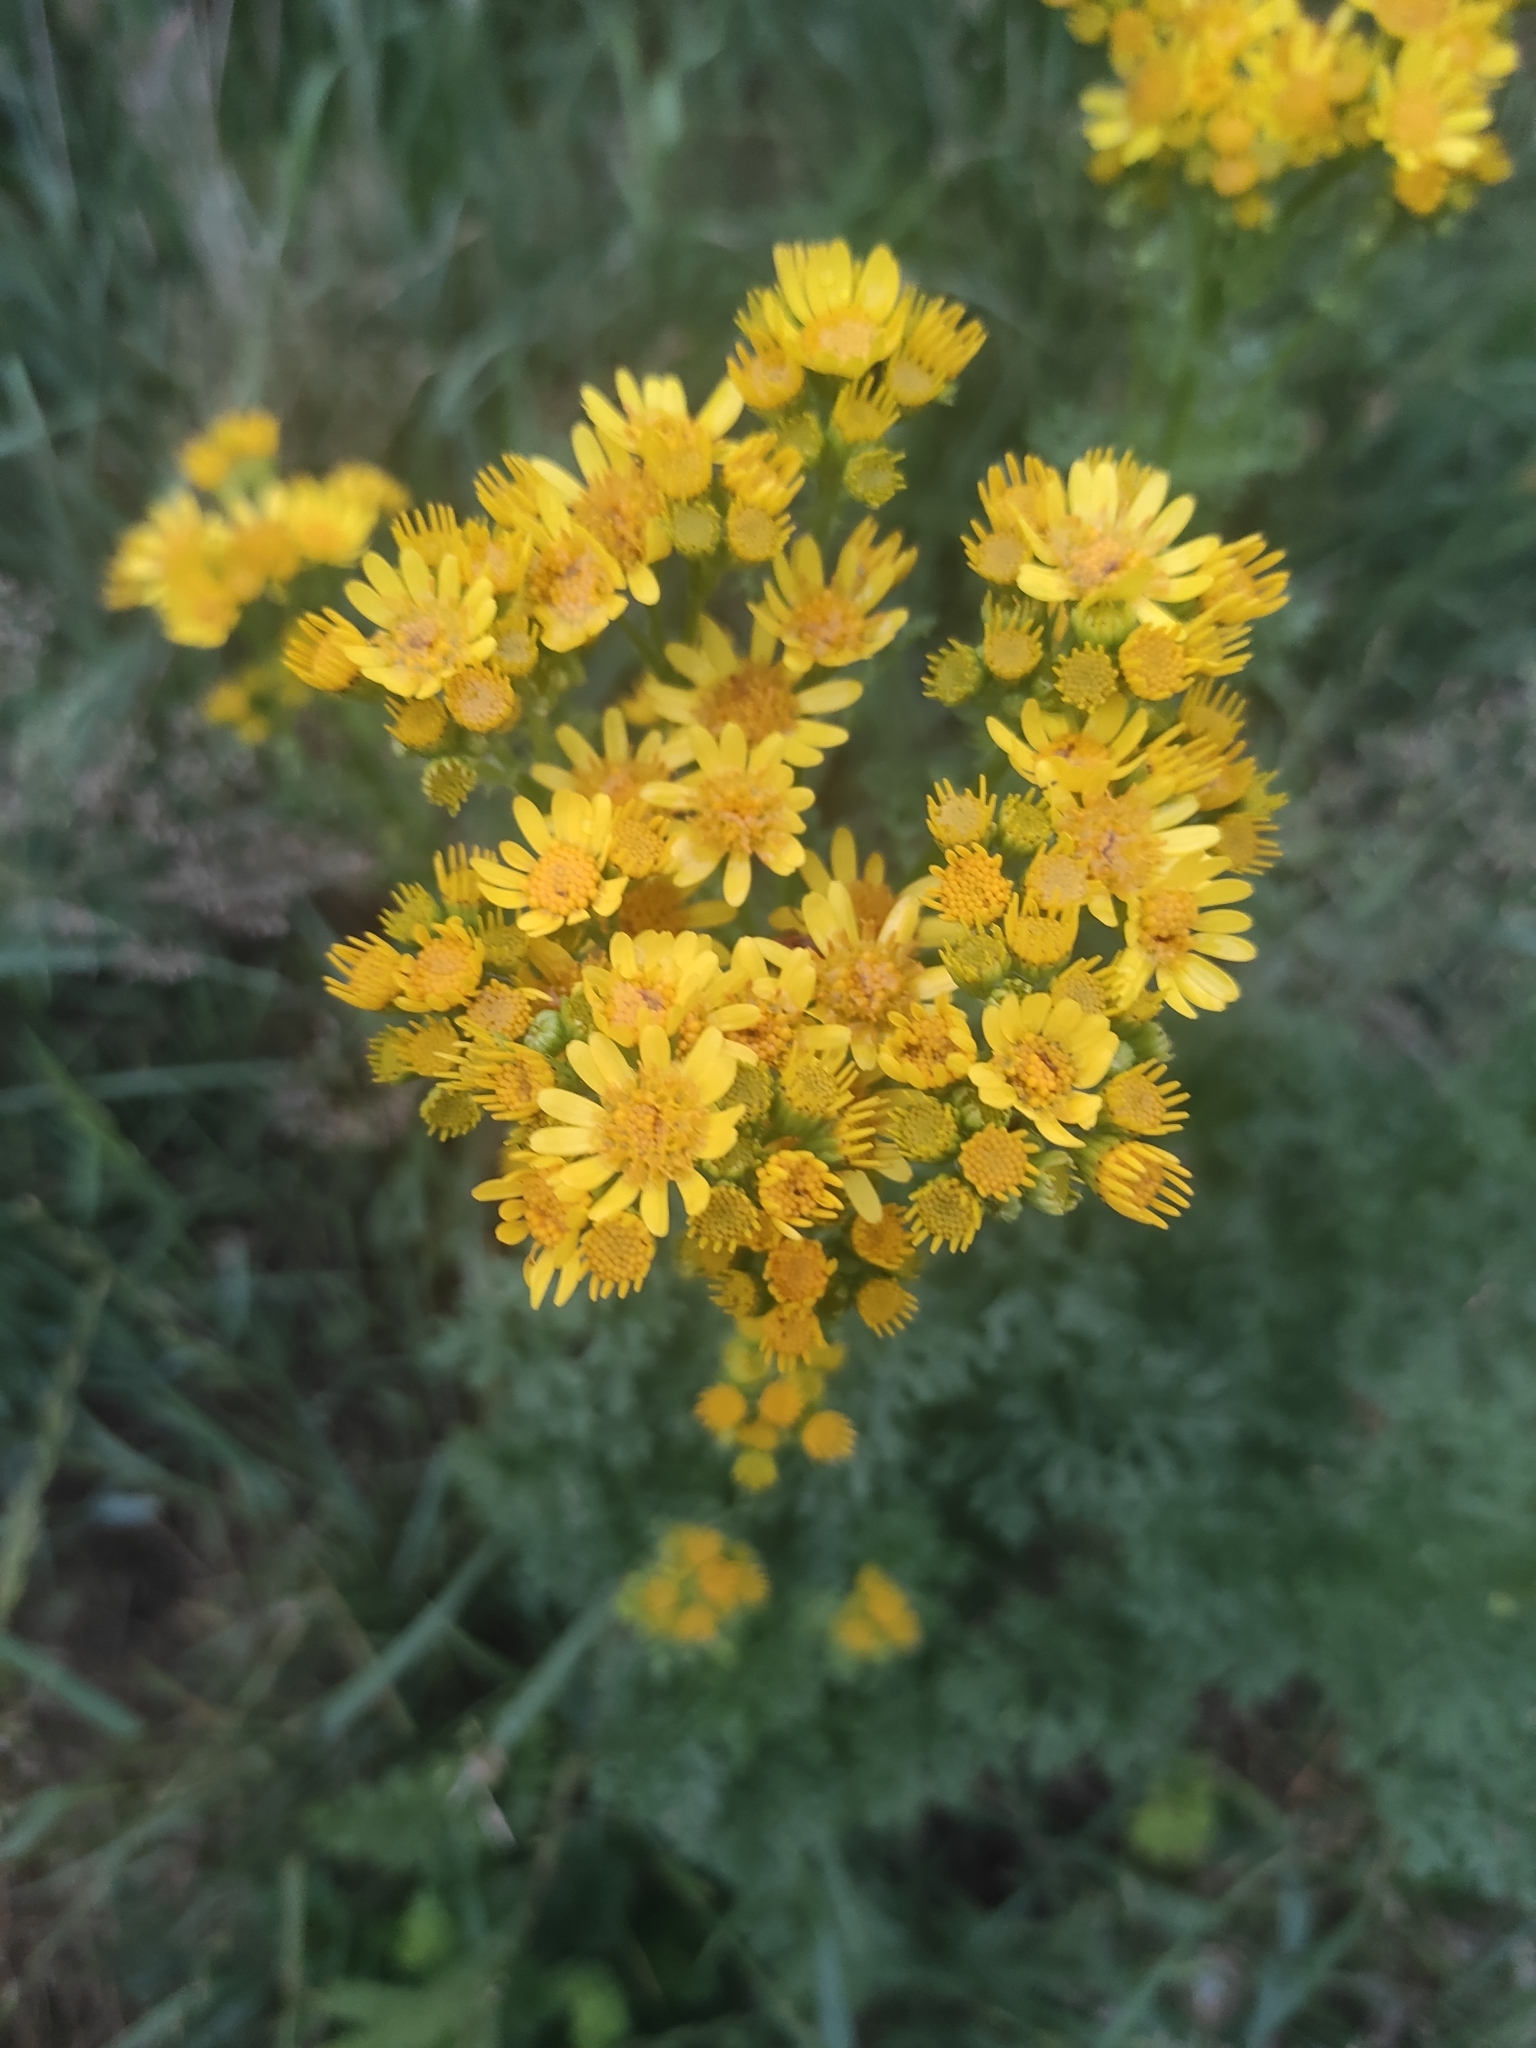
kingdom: Plantae
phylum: Tracheophyta
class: Magnoliopsida
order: Asterales
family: Asteraceae
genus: Jacobaea
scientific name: Jacobaea vulgaris
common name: Stinking willie
